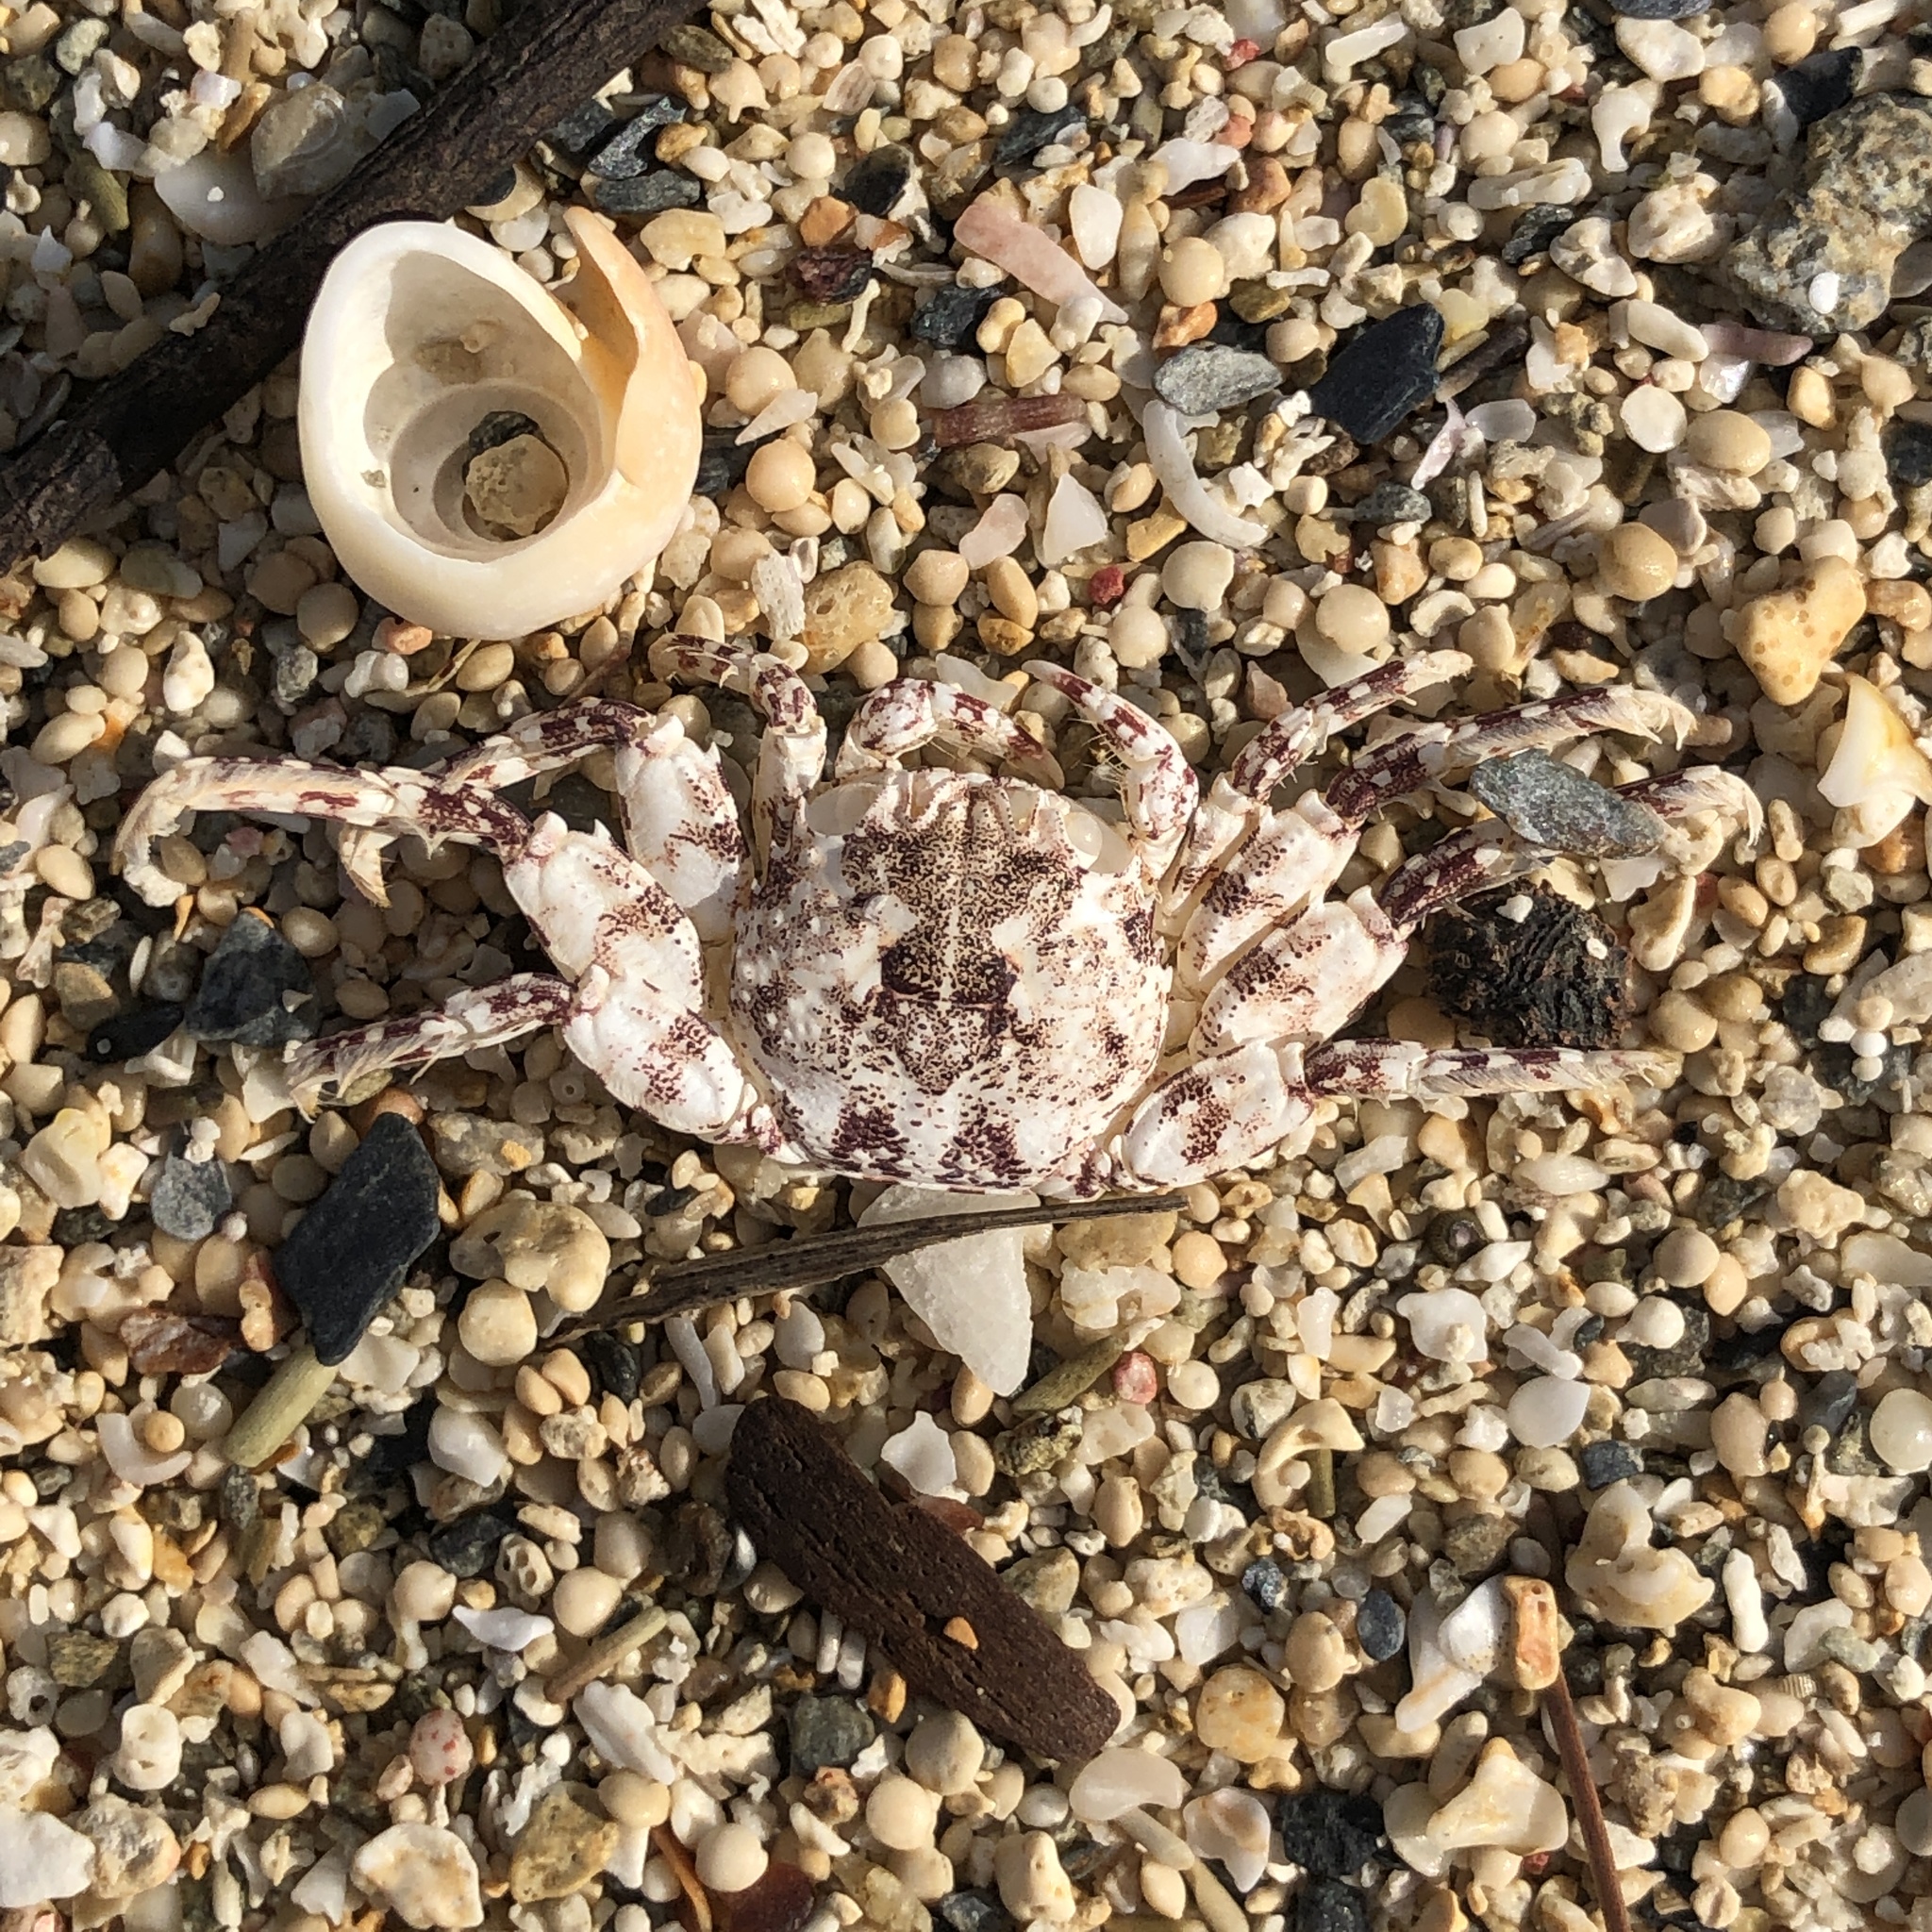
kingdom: Animalia
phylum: Arthropoda
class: Malacostraca
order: Decapoda
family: Plagusiidae
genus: Plagusia
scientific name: Plagusia squamosa
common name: Scaly rock crab
